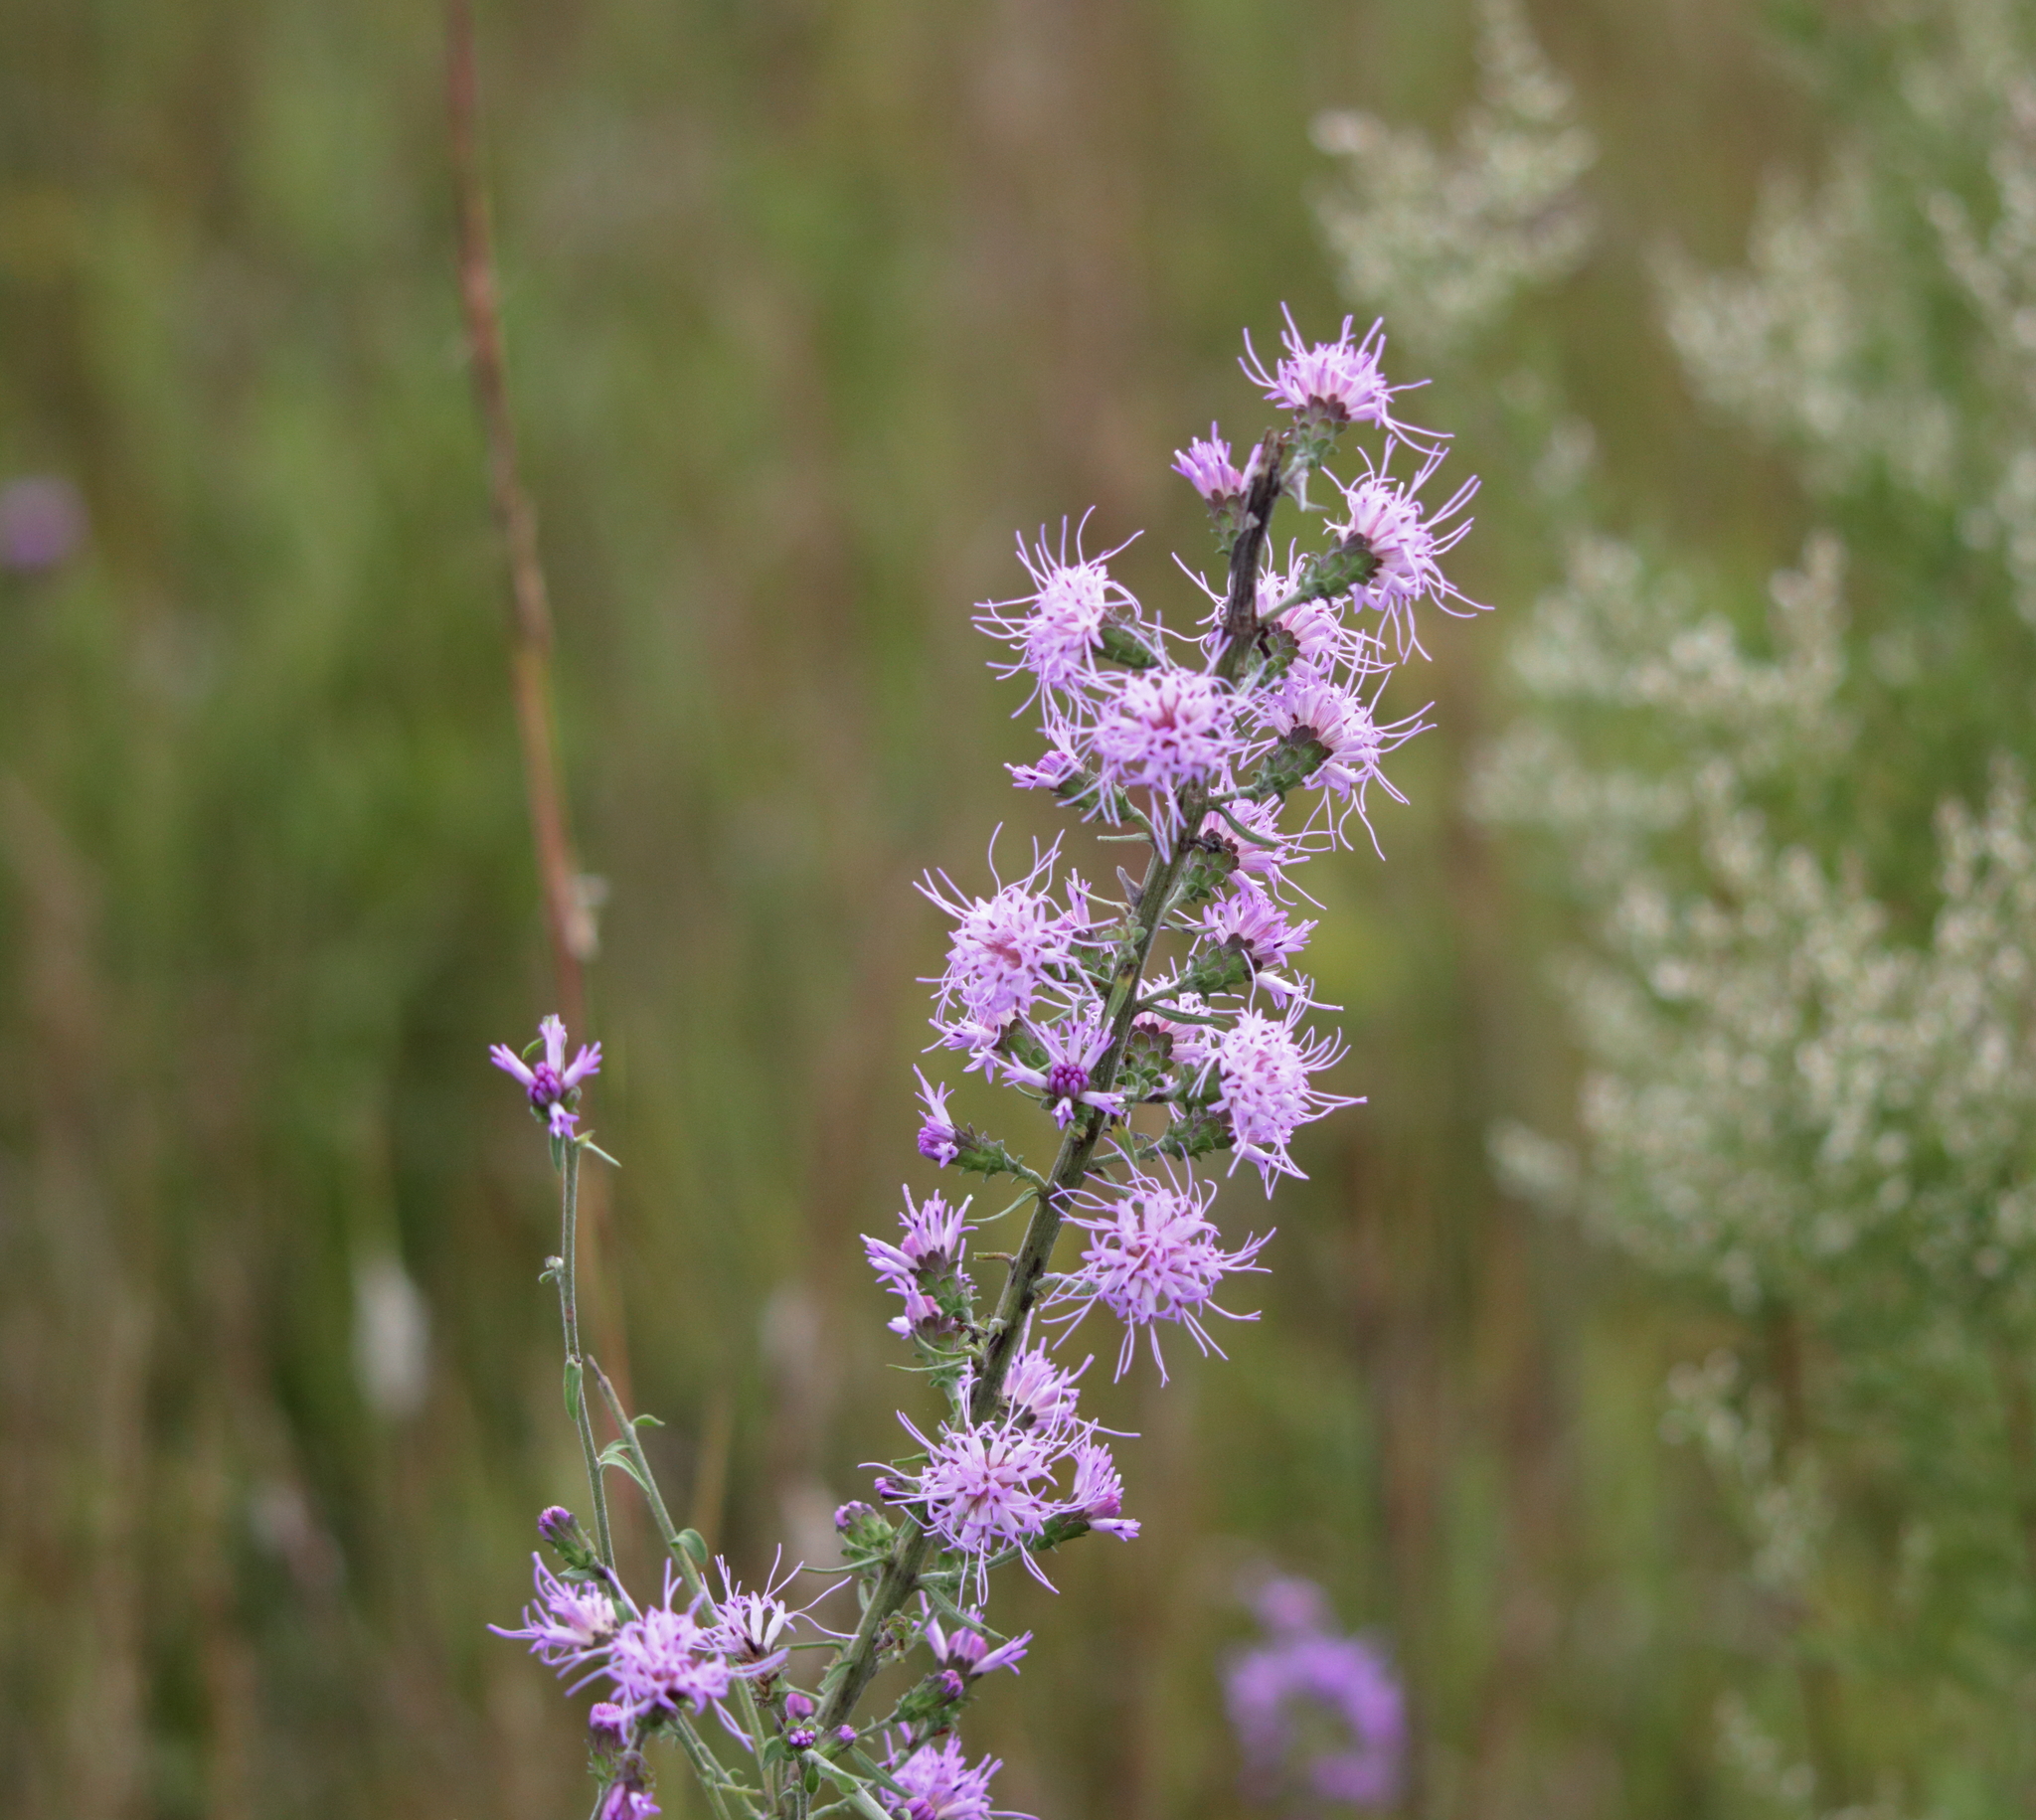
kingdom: Plantae
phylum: Tracheophyta
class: Magnoliopsida
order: Asterales
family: Asteraceae
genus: Liatris
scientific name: Liatris squarrulosa
